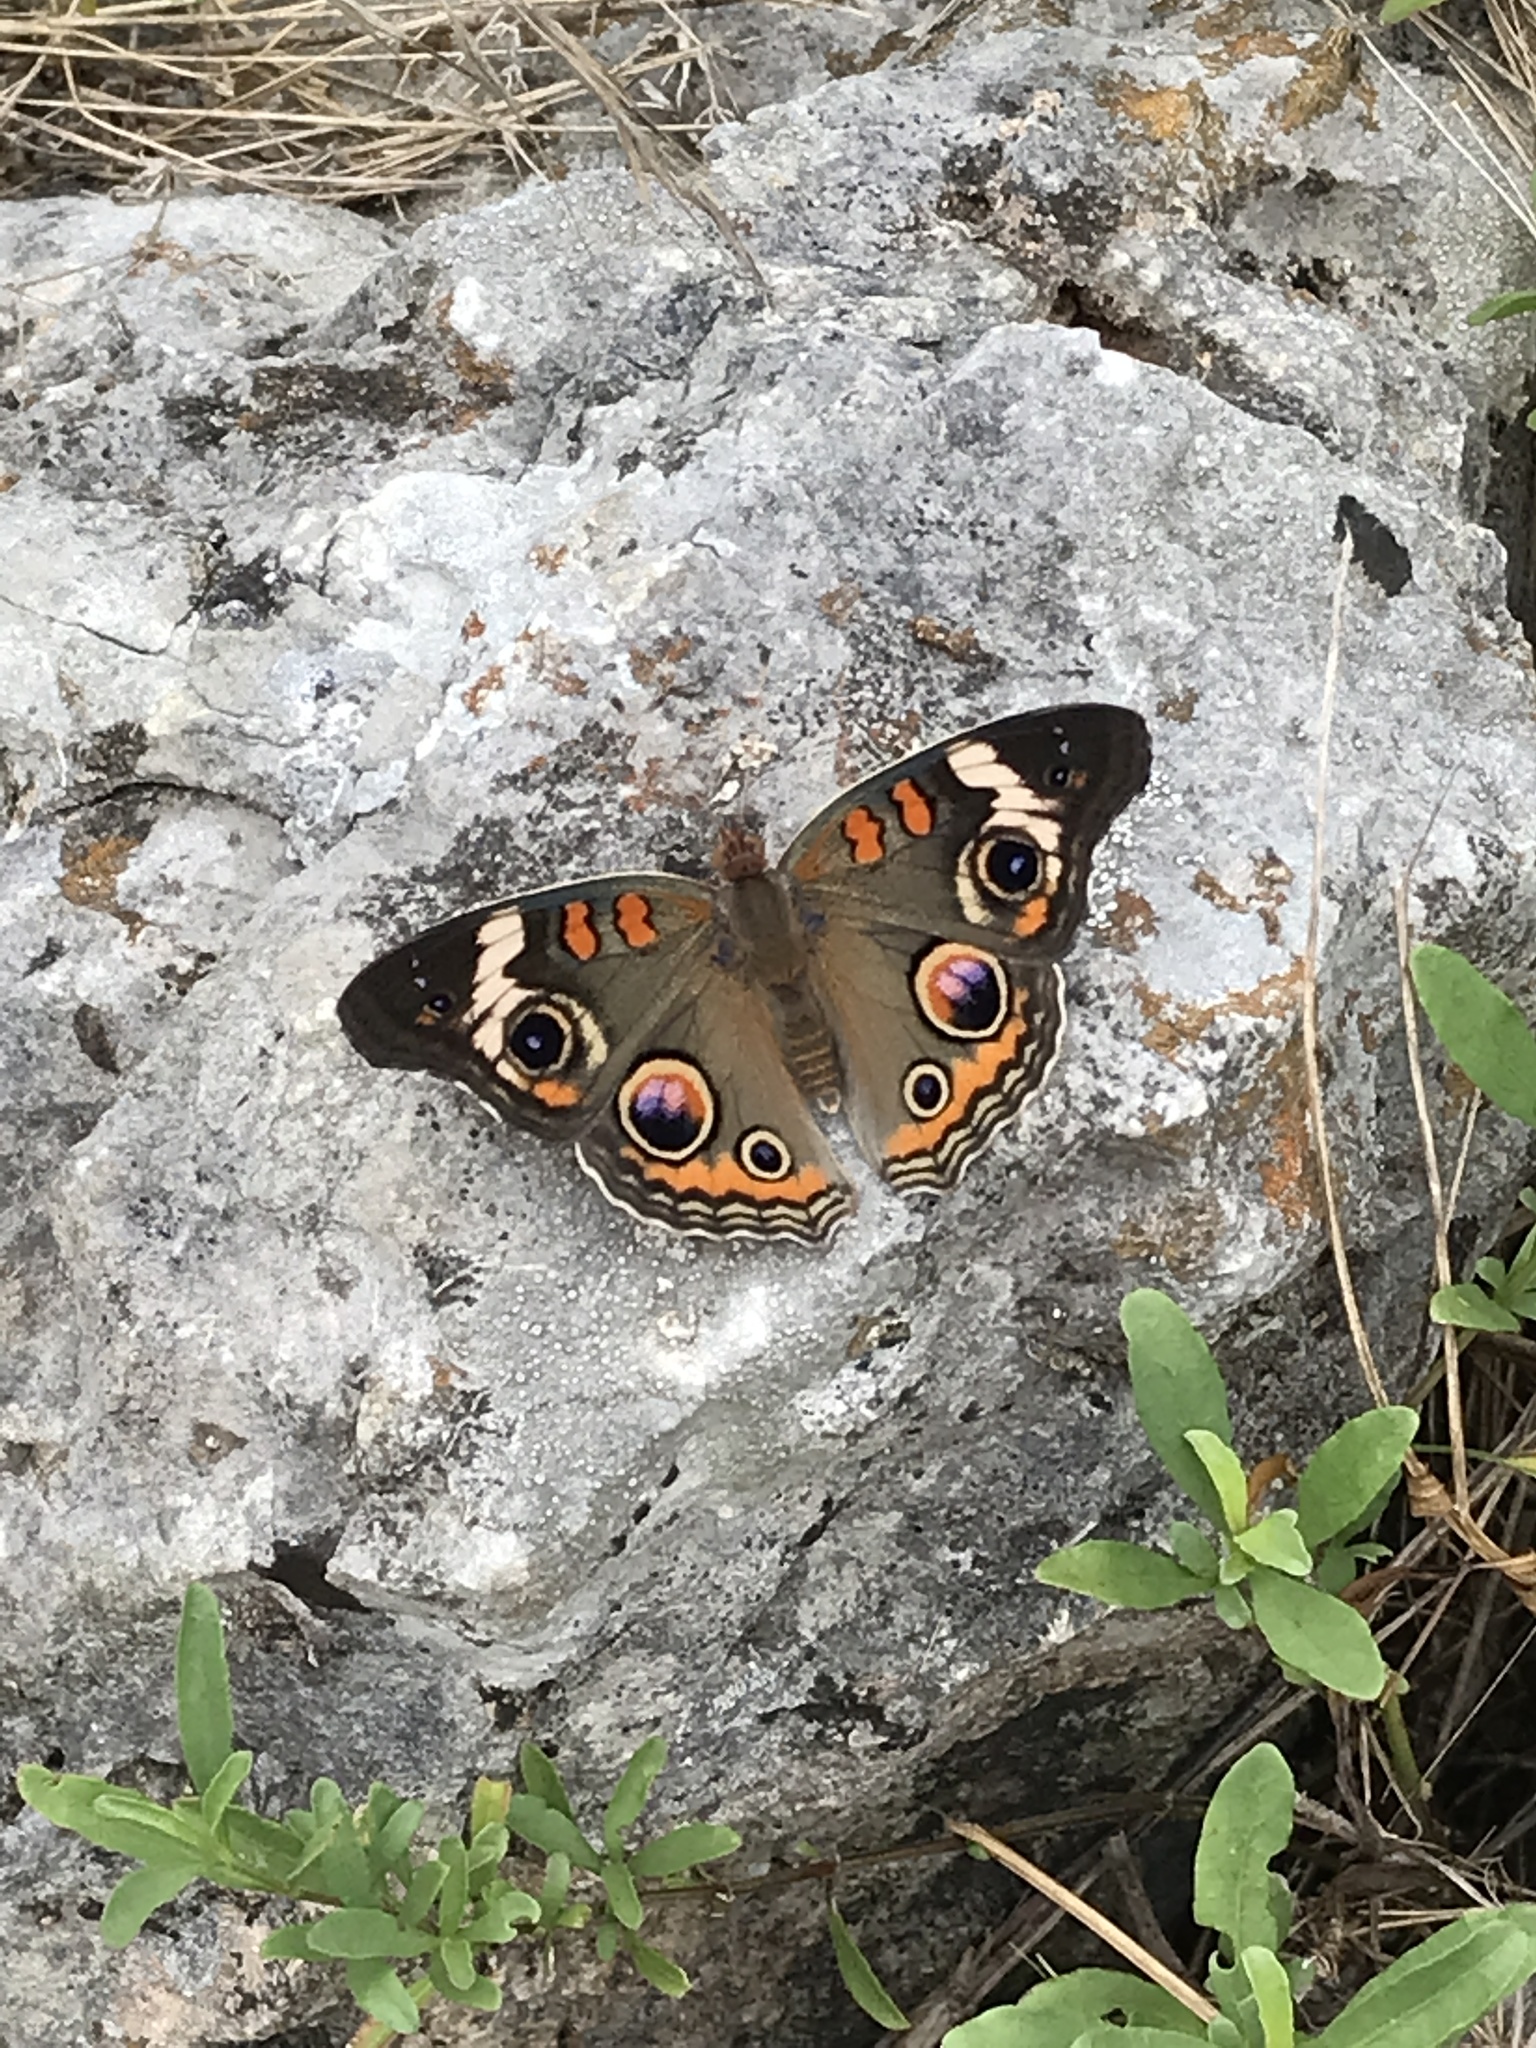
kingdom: Animalia
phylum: Arthropoda
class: Insecta
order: Lepidoptera
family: Nymphalidae
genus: Junonia
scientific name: Junonia coenia
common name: Common buckeye
